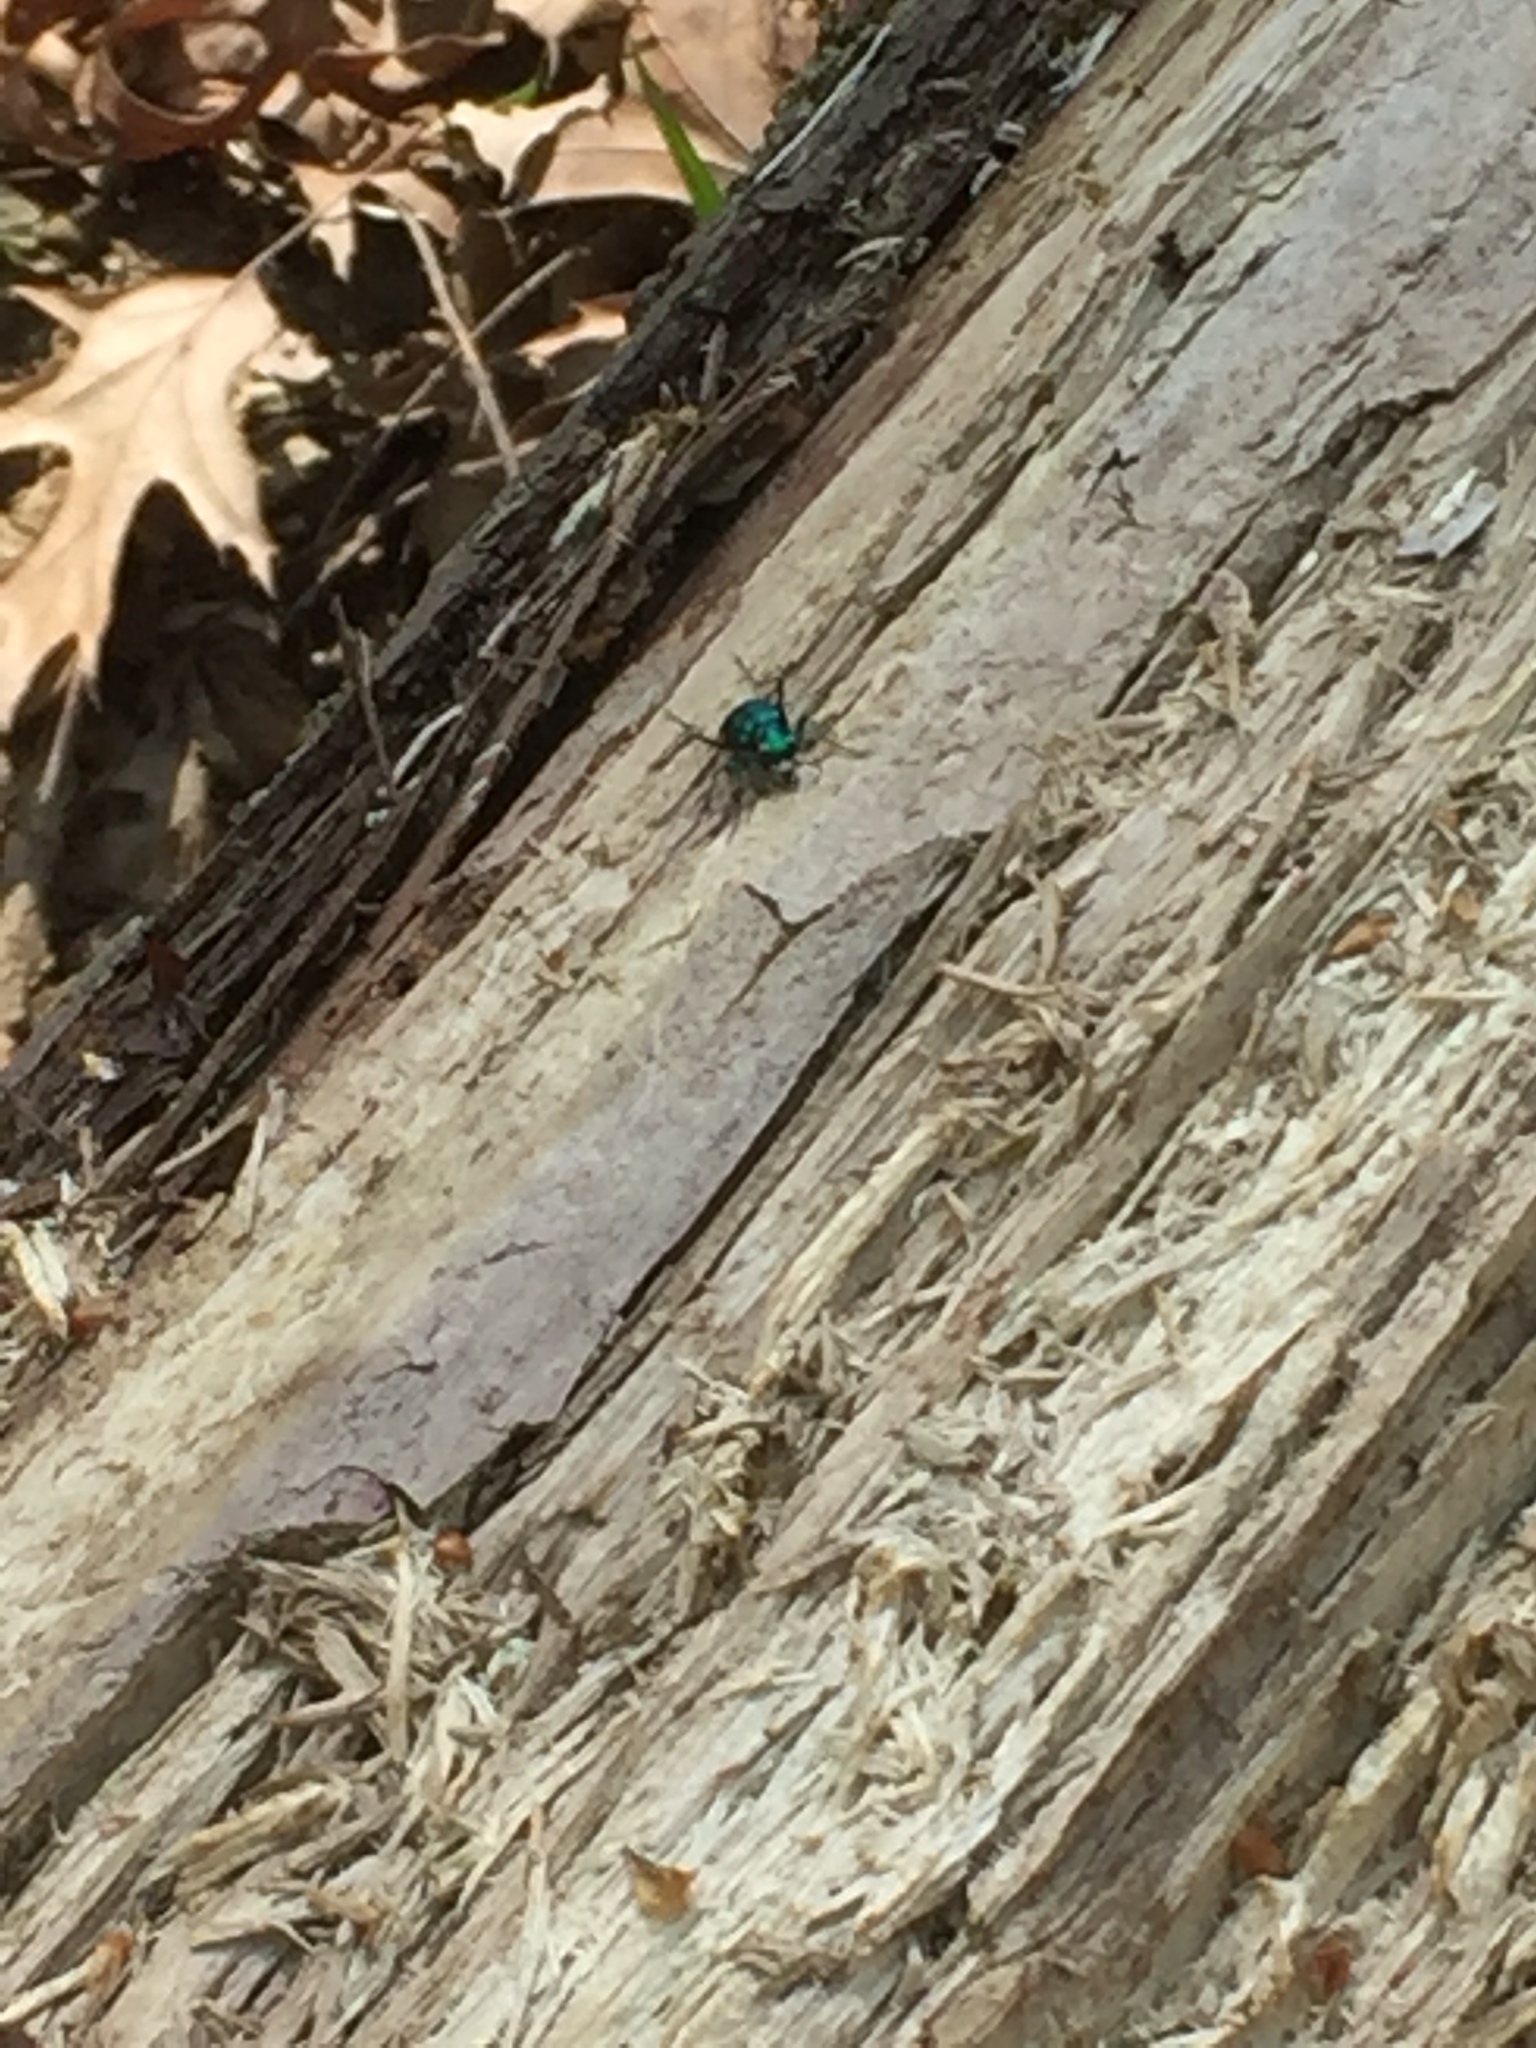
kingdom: Animalia
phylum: Arthropoda
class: Insecta
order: Coleoptera
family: Carabidae
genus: Cicindela
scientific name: Cicindela sexguttata
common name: Six-spotted tiger beetle
